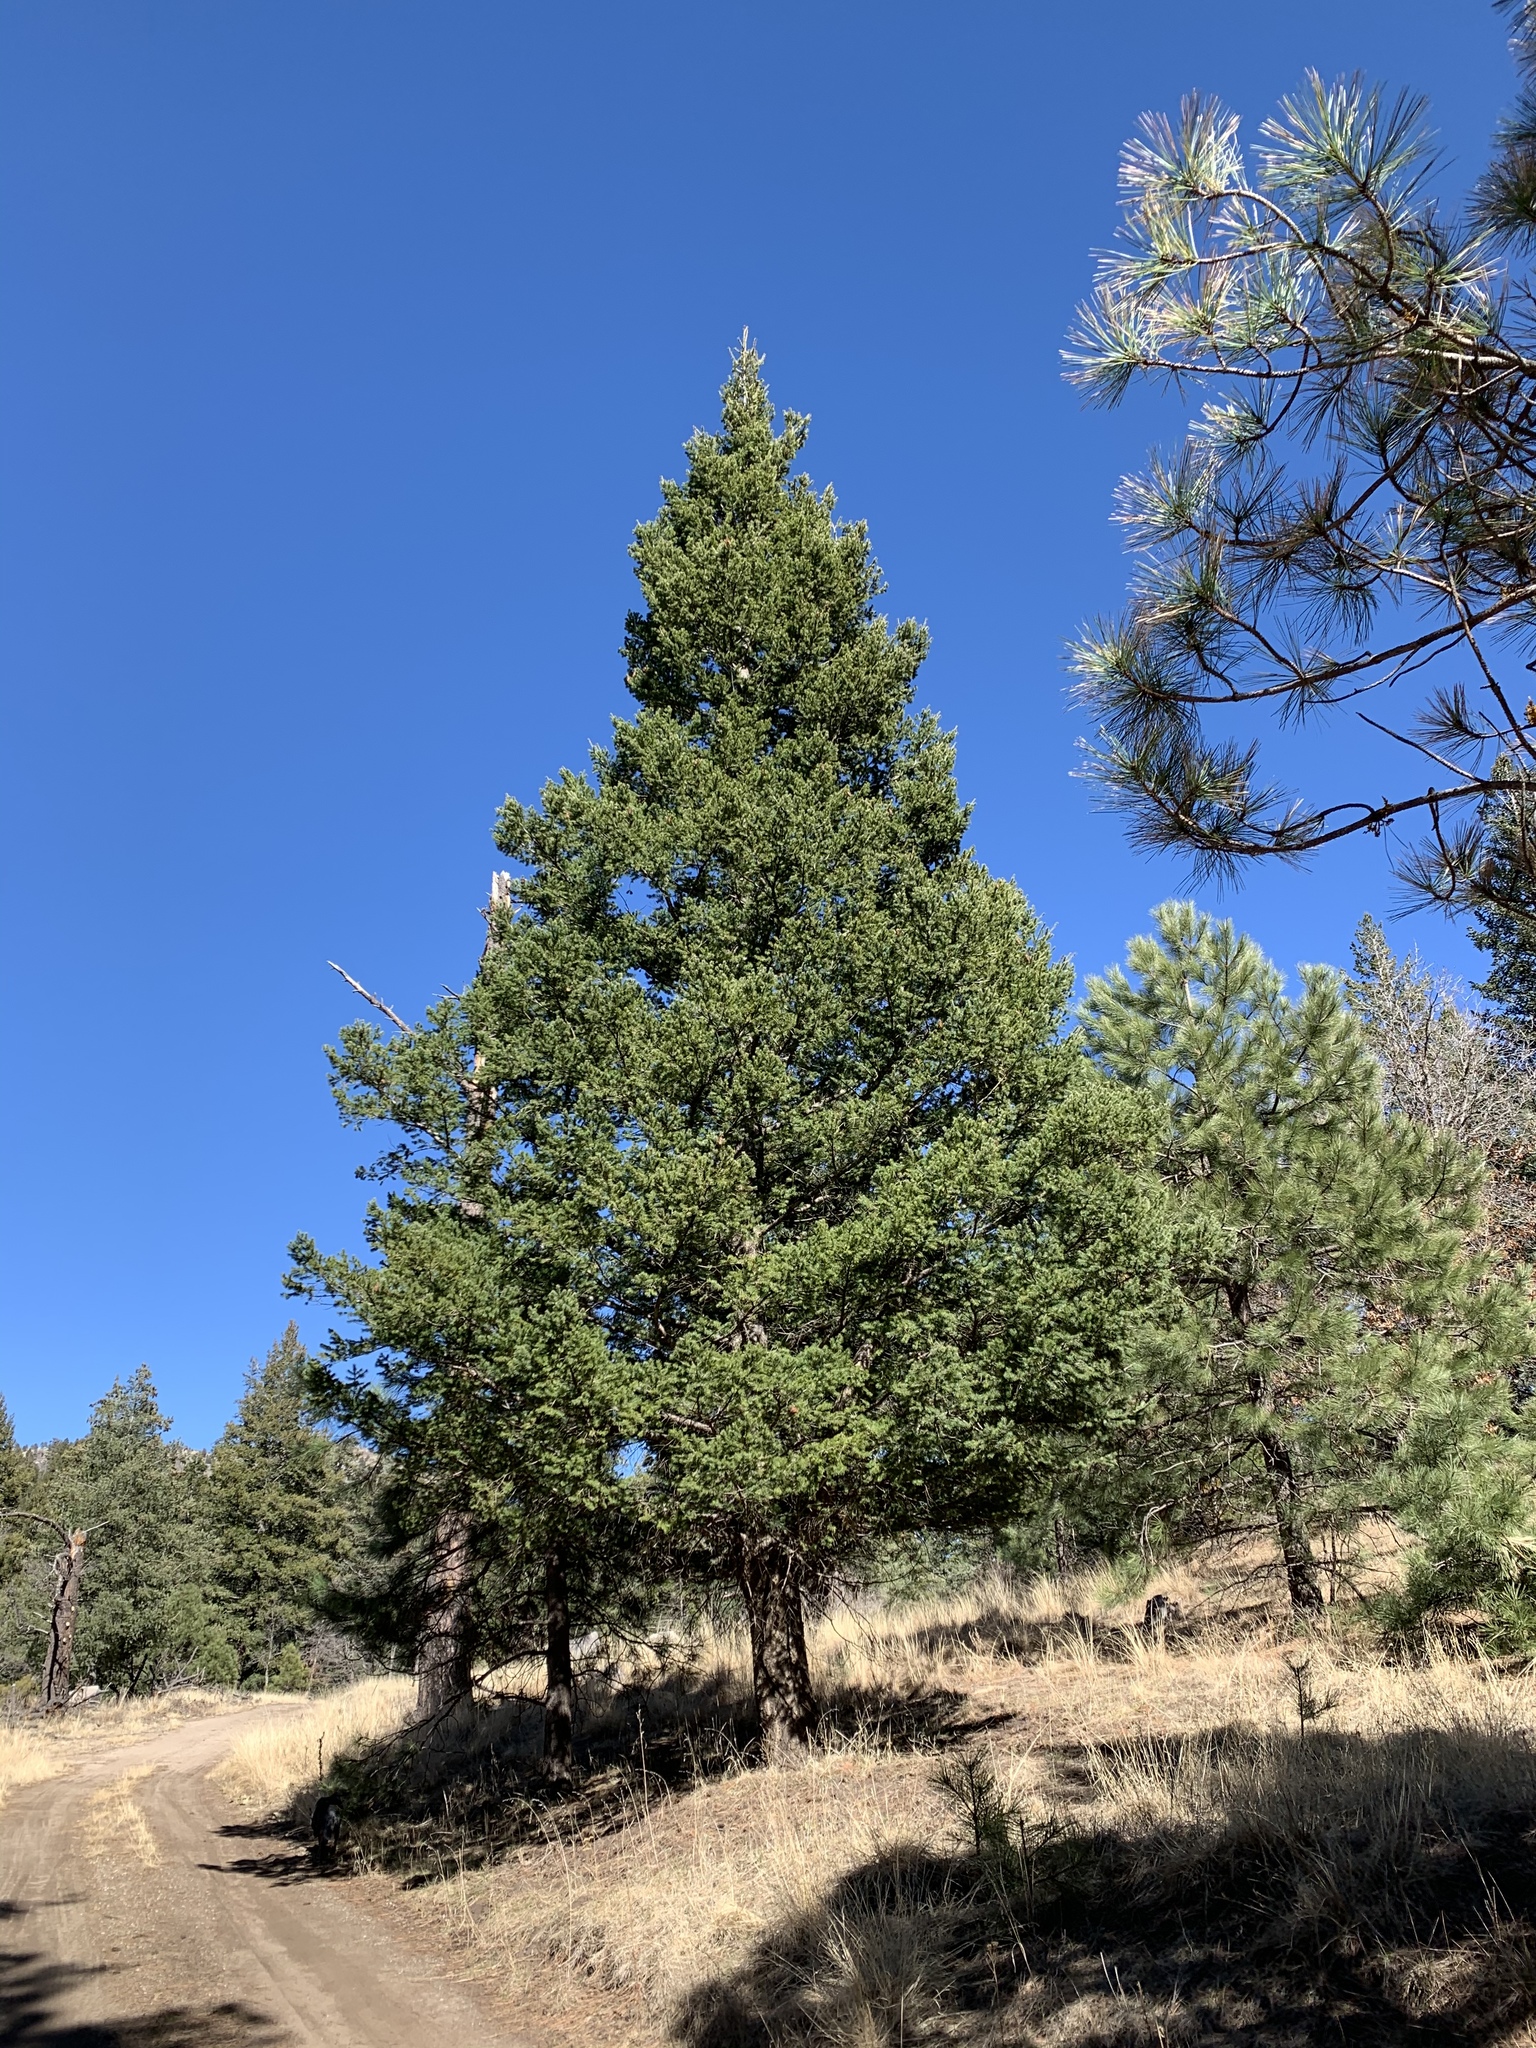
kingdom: Plantae
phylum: Tracheophyta
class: Pinopsida
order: Pinales
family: Pinaceae
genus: Pseudotsuga
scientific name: Pseudotsuga menziesii
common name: Douglas fir
